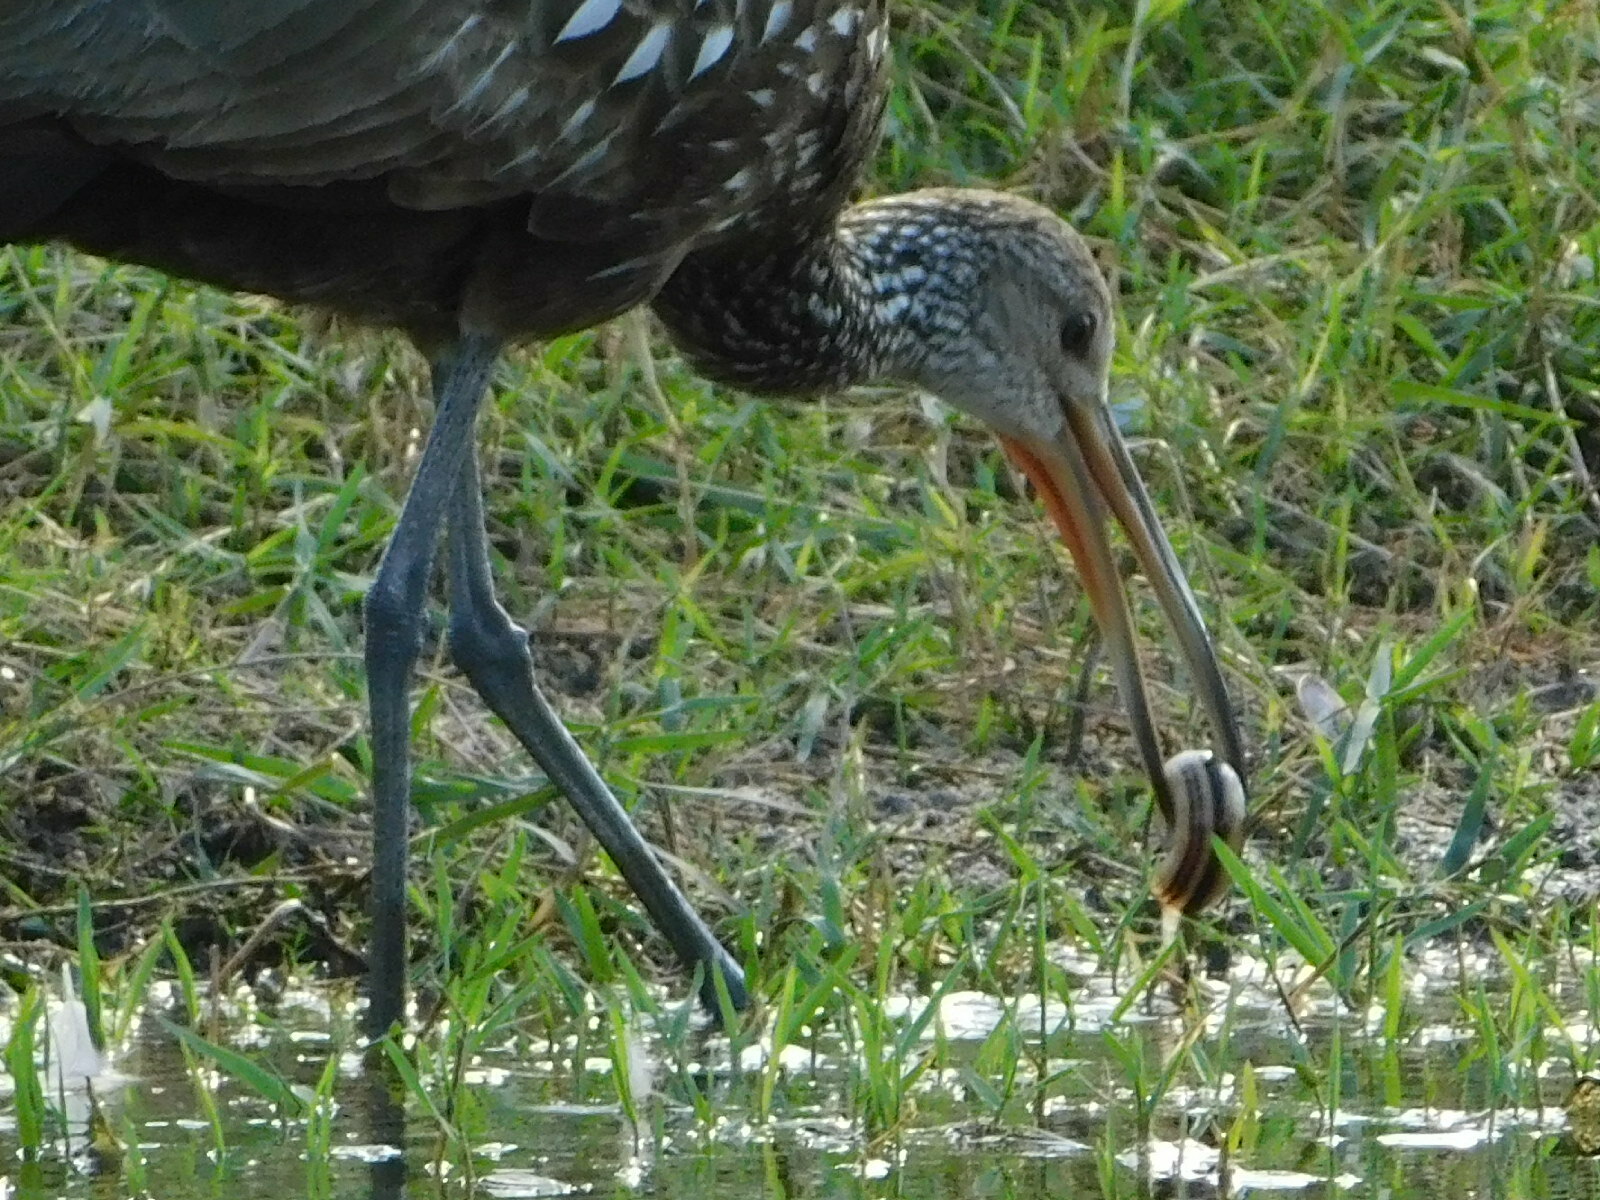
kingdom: Animalia
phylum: Chordata
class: Aves
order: Gruiformes
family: Aramidae
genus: Aramus
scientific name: Aramus guarauna
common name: Limpkin
